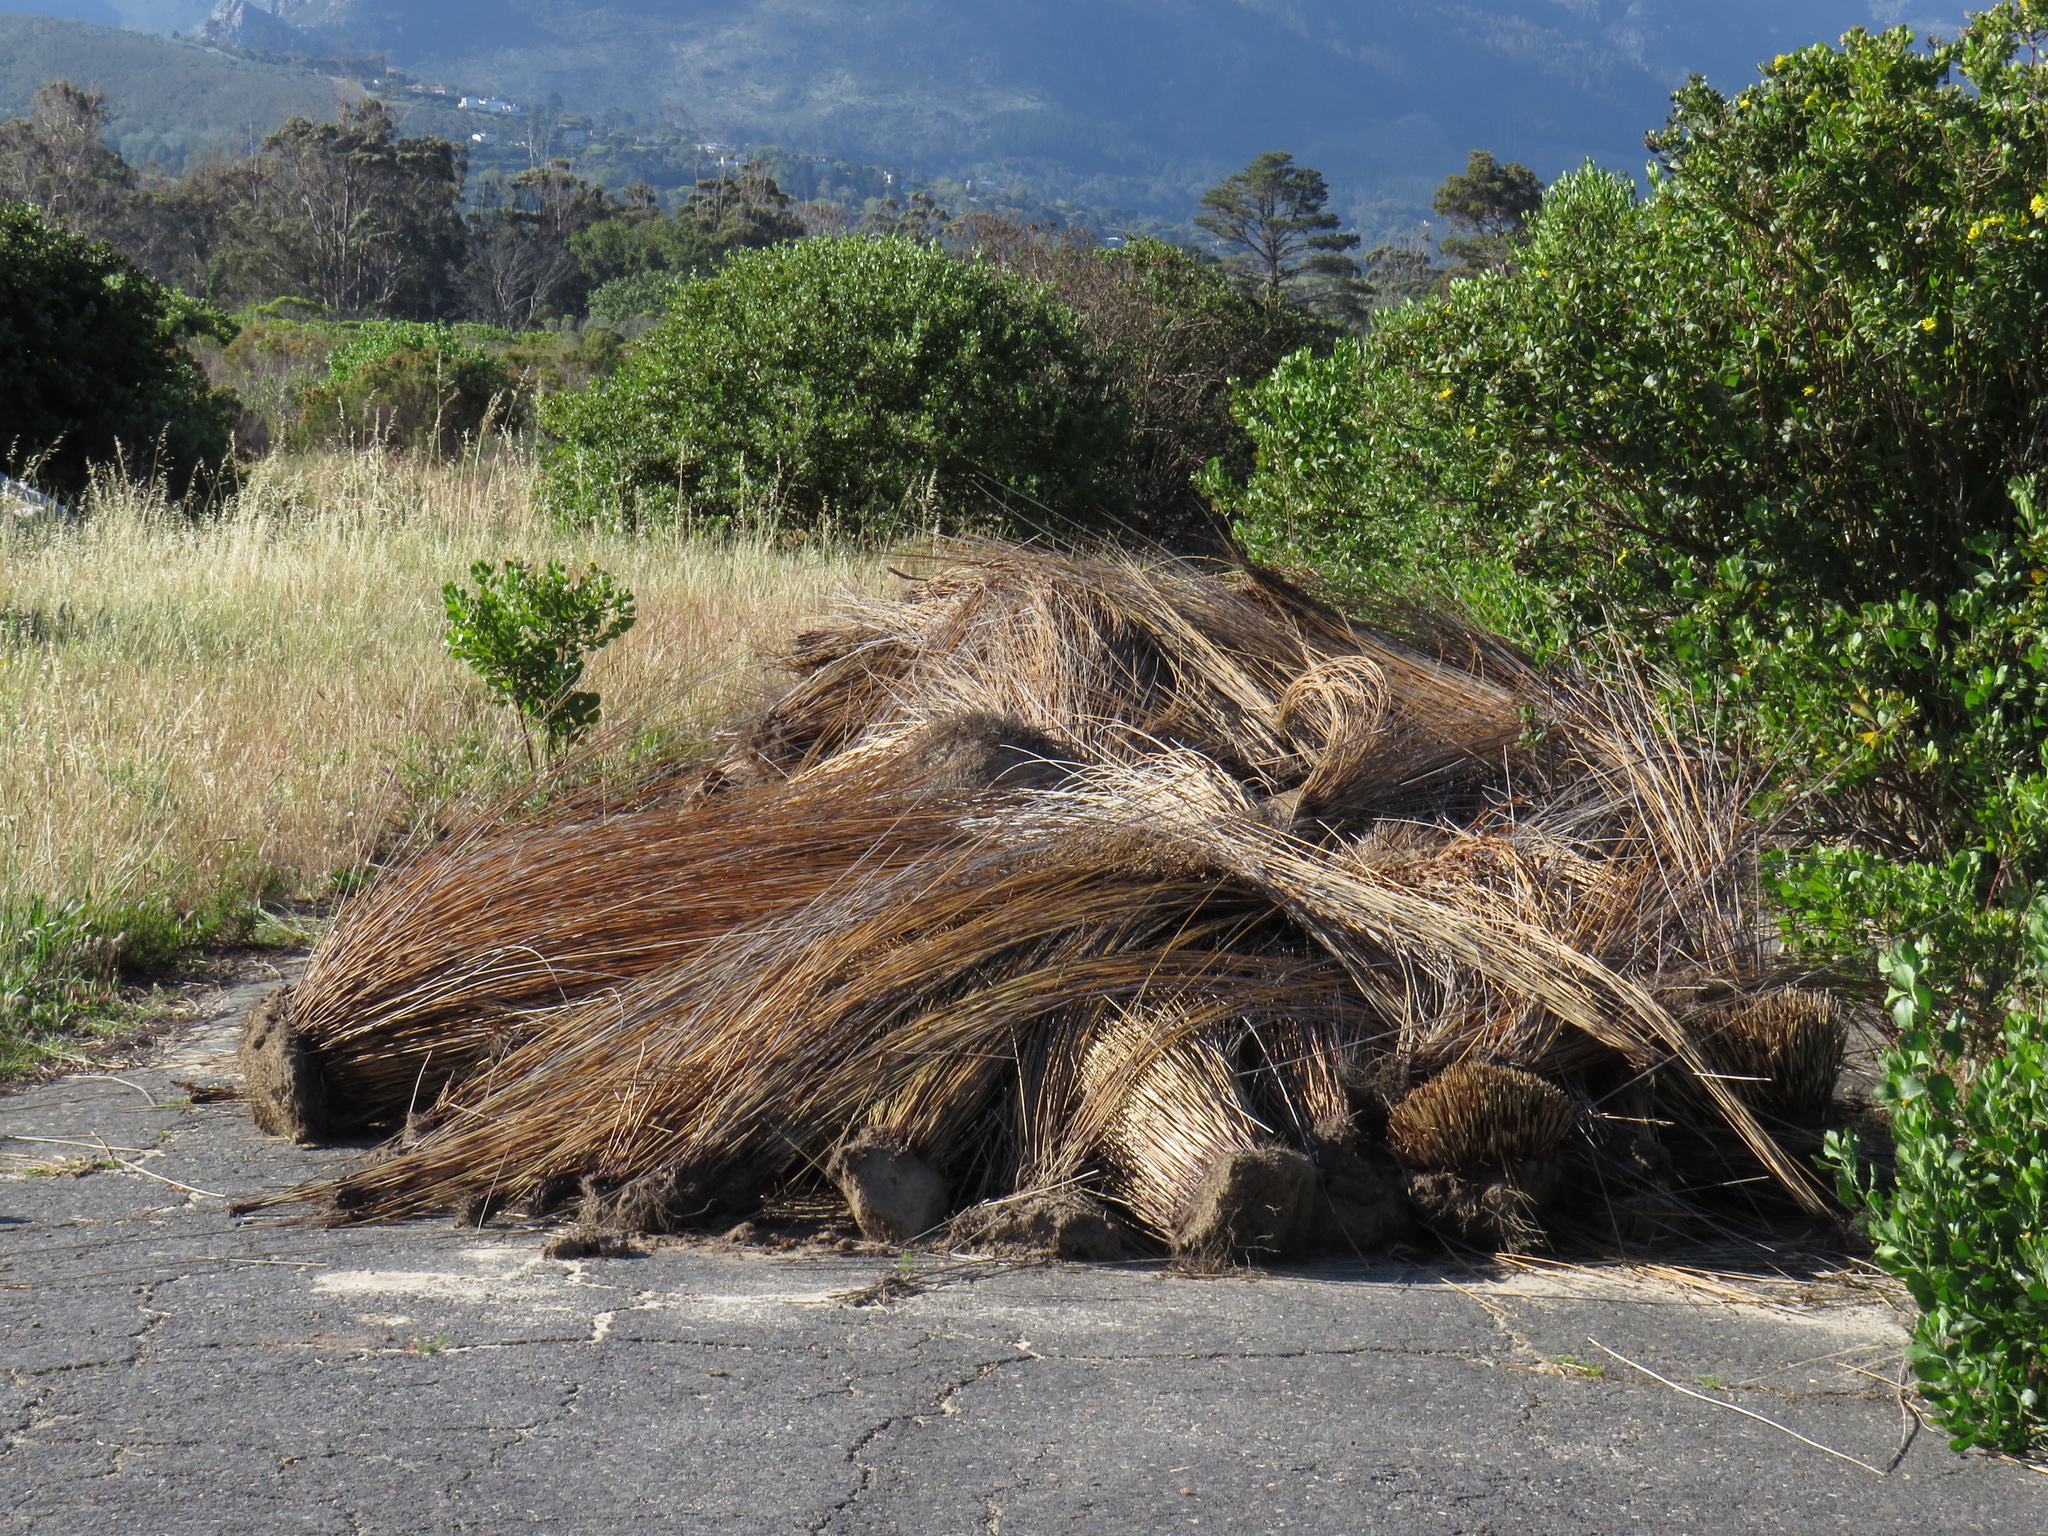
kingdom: Plantae
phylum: Tracheophyta
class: Liliopsida
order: Poales
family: Restionaceae
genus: Thamnochortus
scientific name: Thamnochortus insignis
